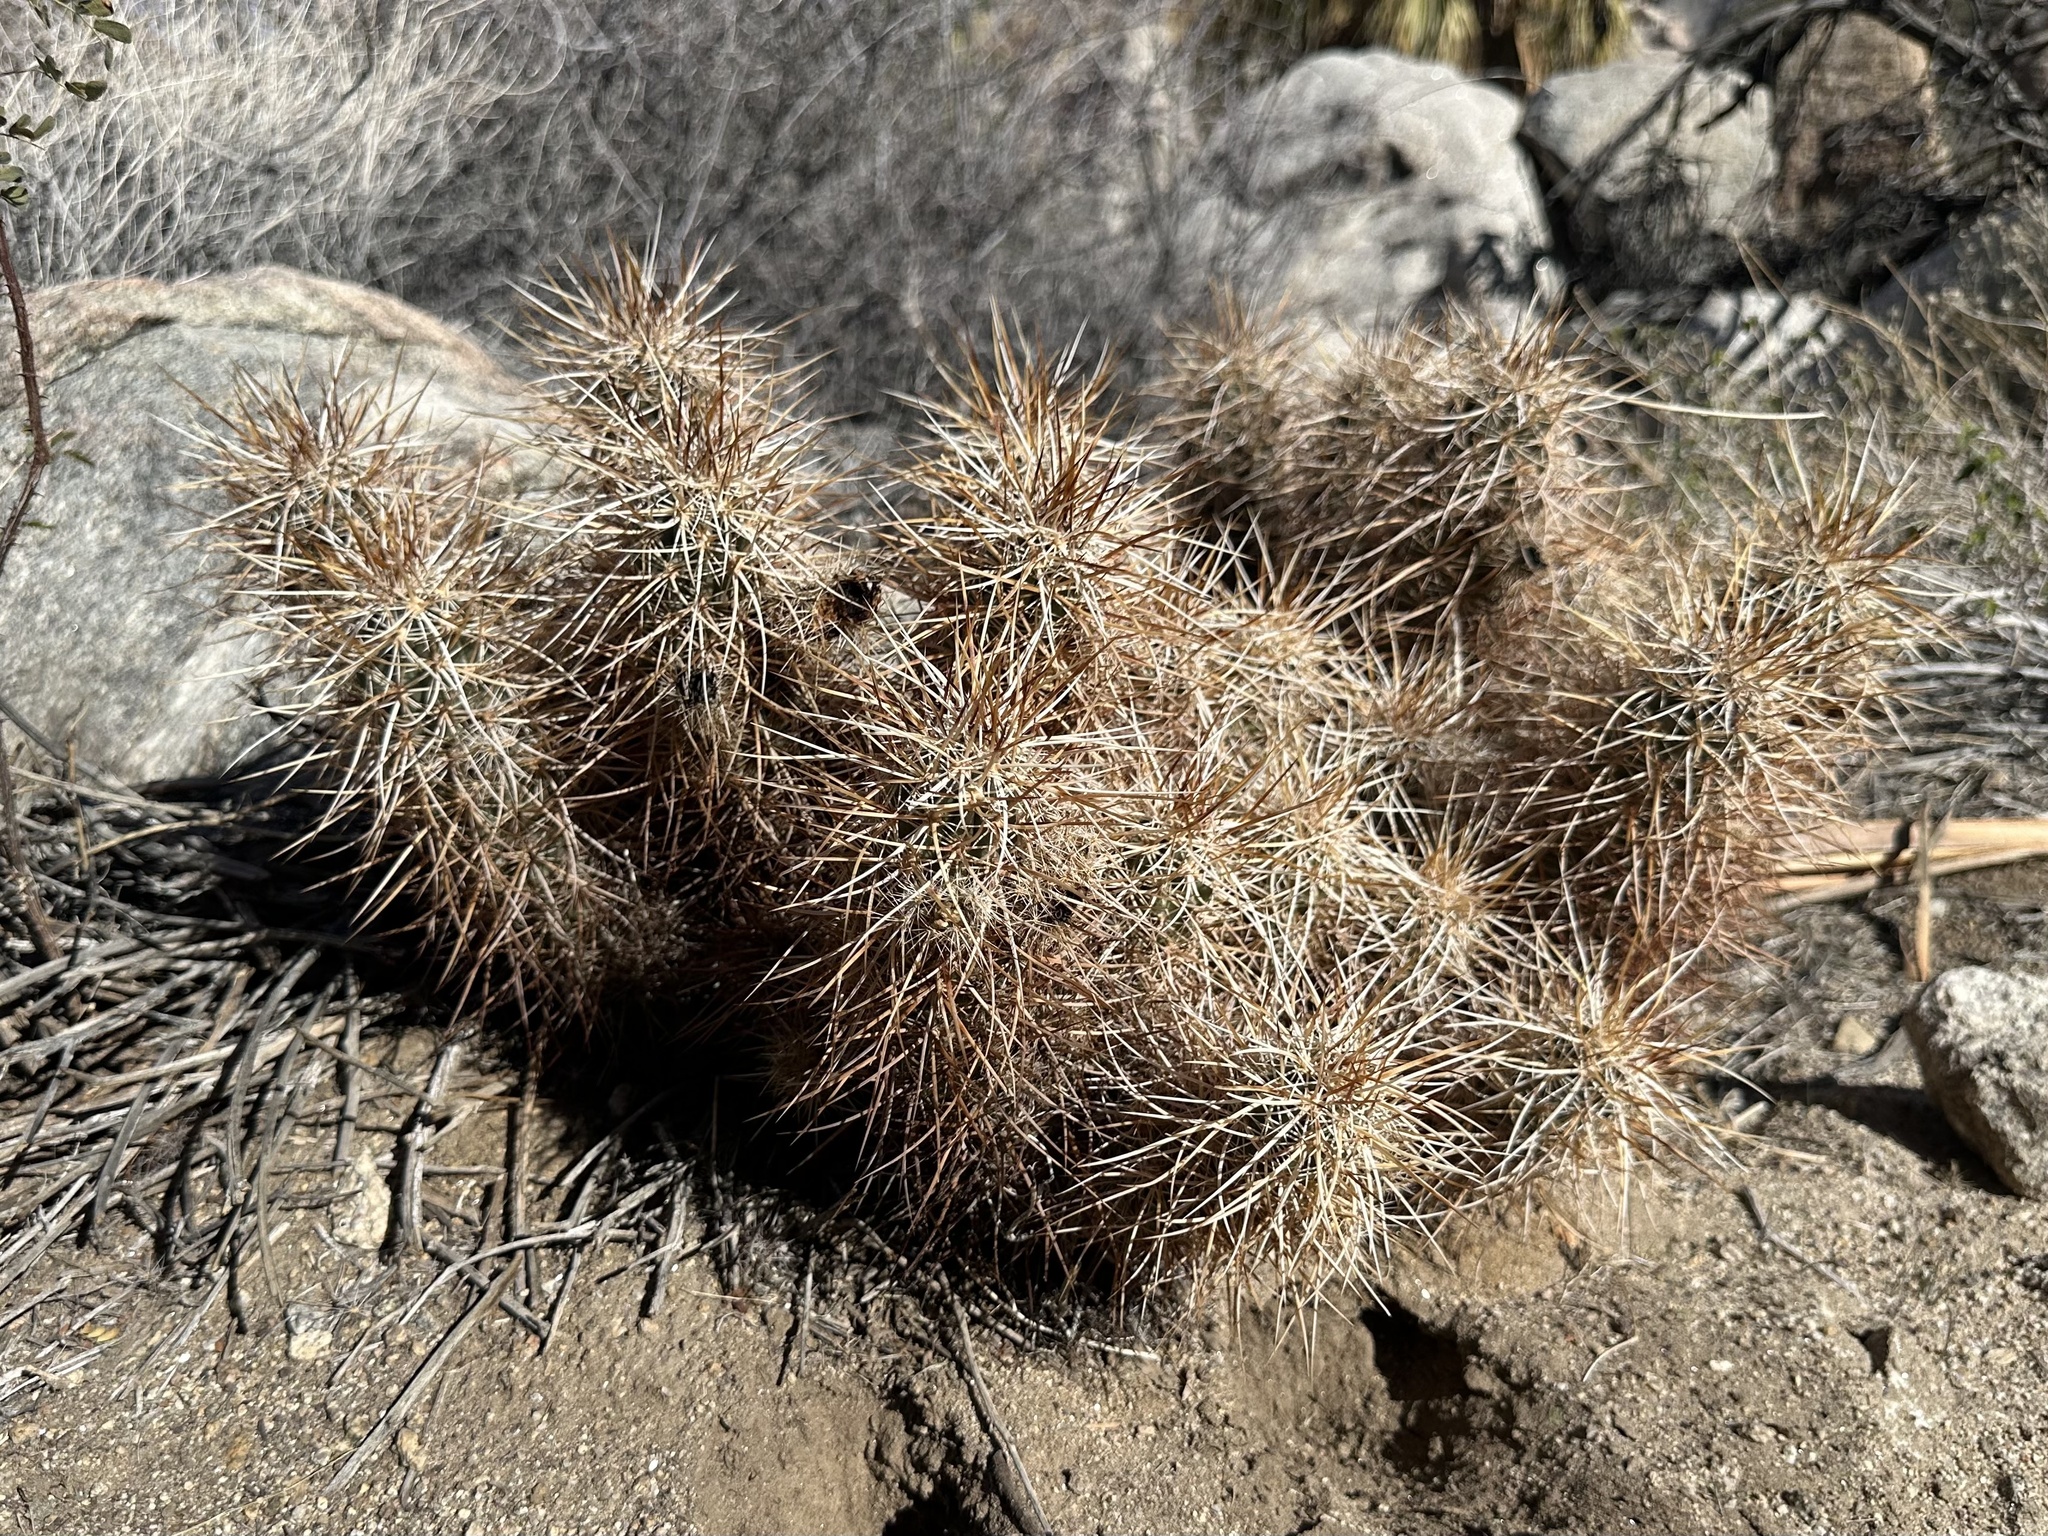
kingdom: Plantae
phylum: Tracheophyta
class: Magnoliopsida
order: Caryophyllales
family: Cactaceae
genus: Echinocereus
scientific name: Echinocereus engelmannii
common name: Engelmann's hedgehog cactus
